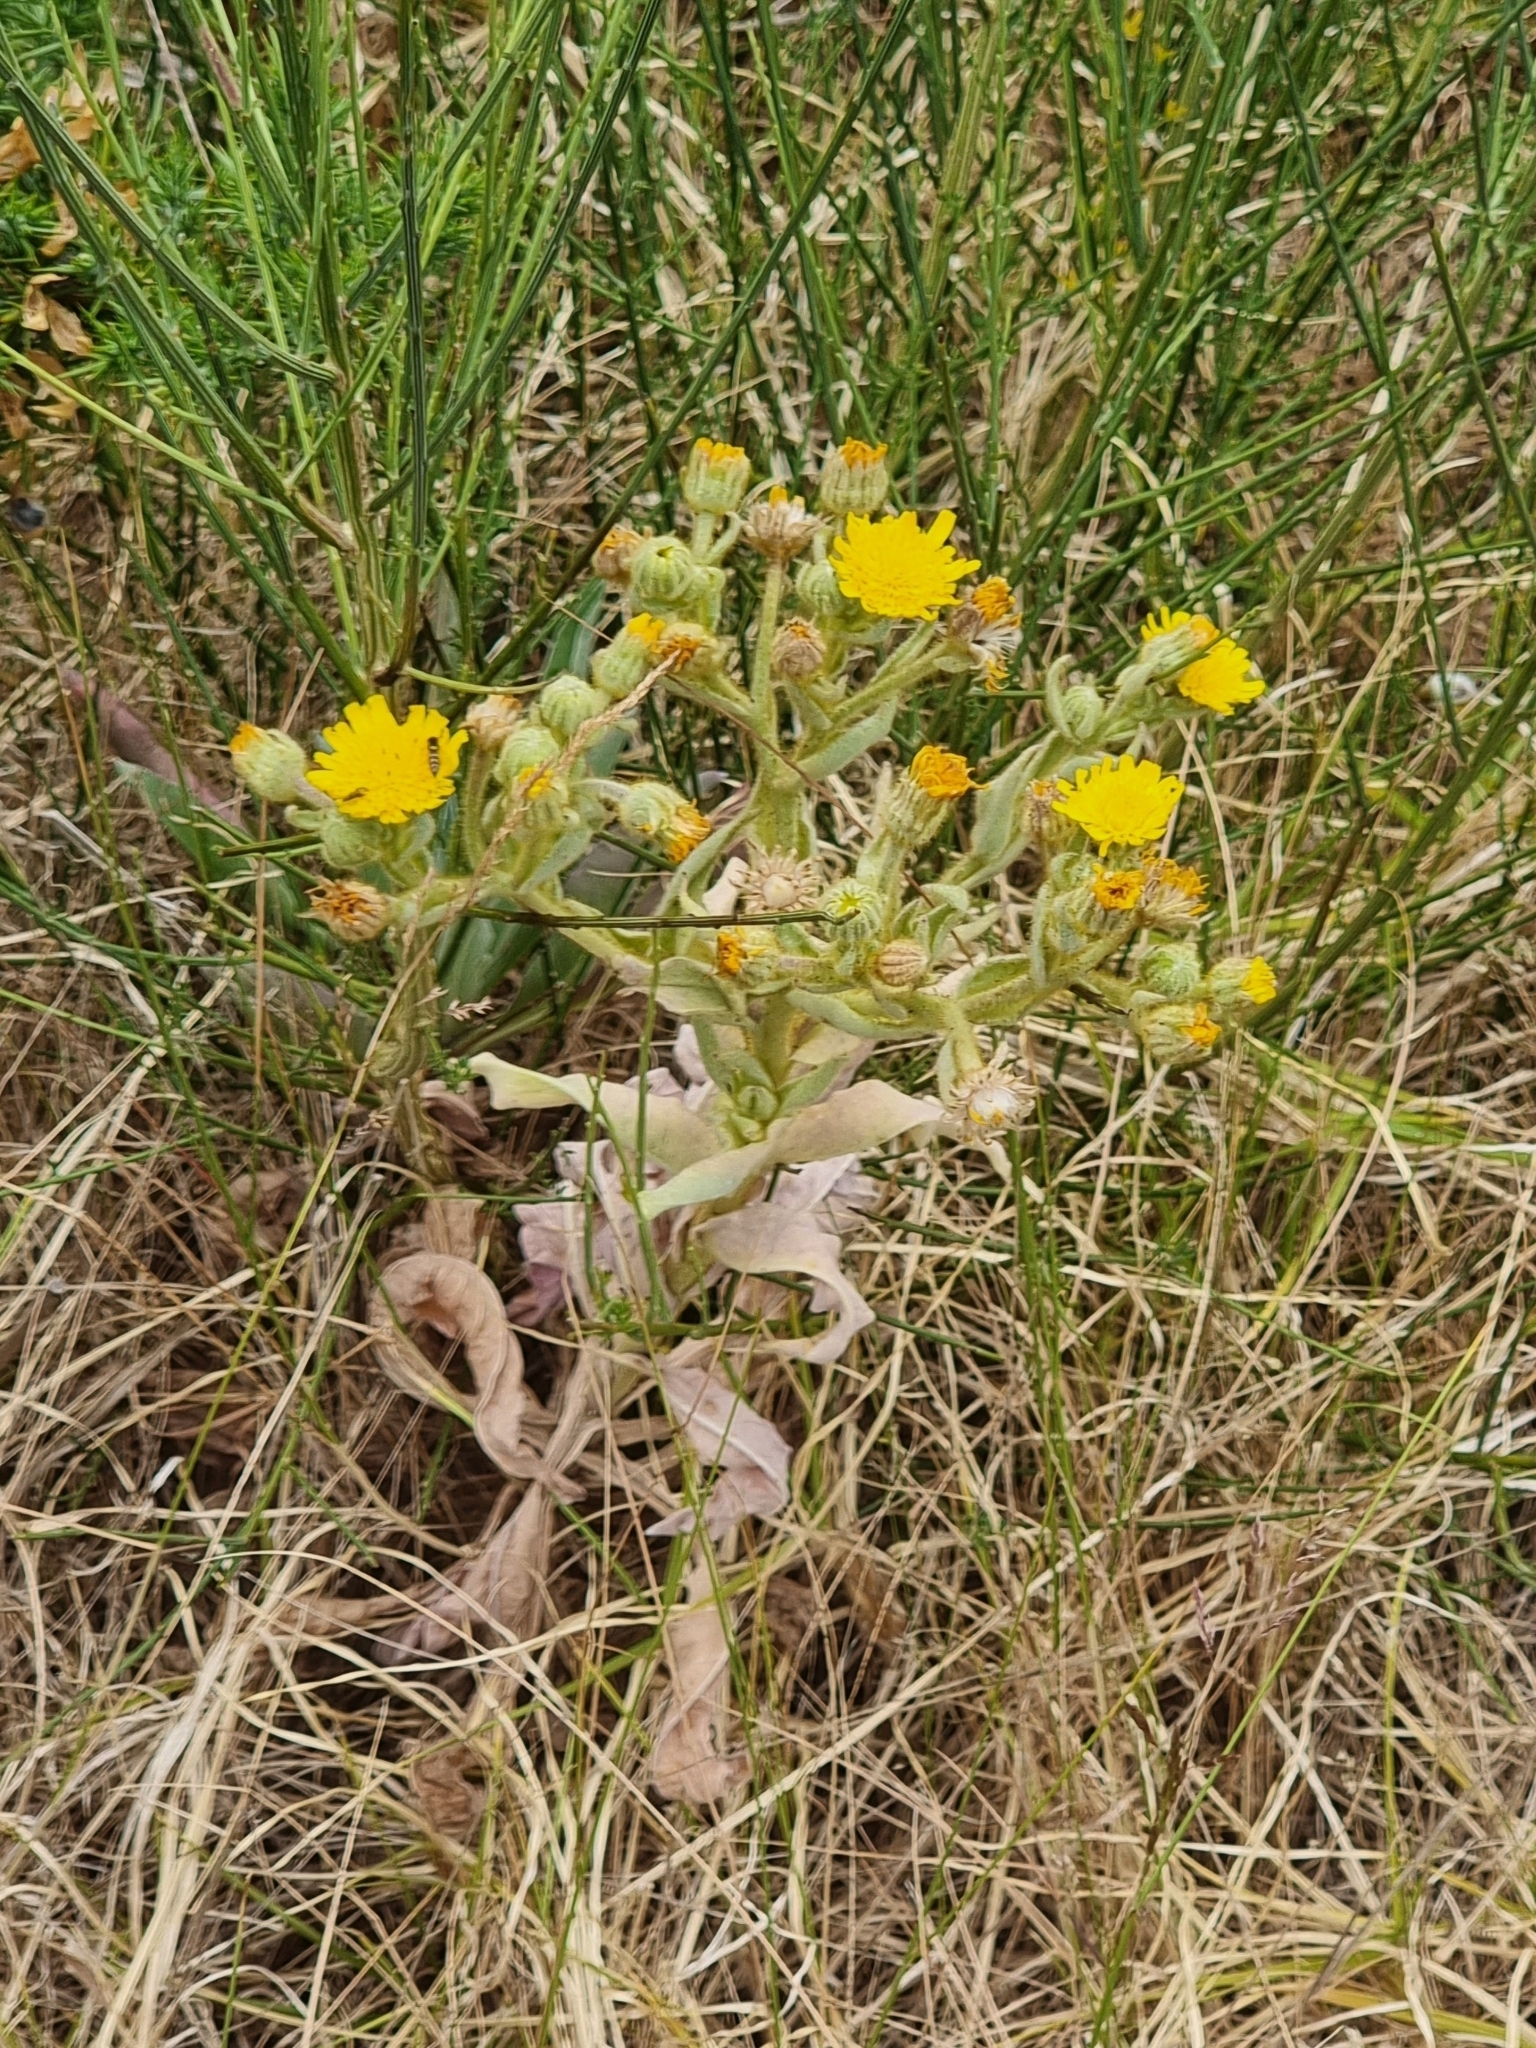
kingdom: Plantae
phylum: Tracheophyta
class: Magnoliopsida
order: Asterales
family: Asteraceae
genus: Andryala
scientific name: Andryala glandulosa
